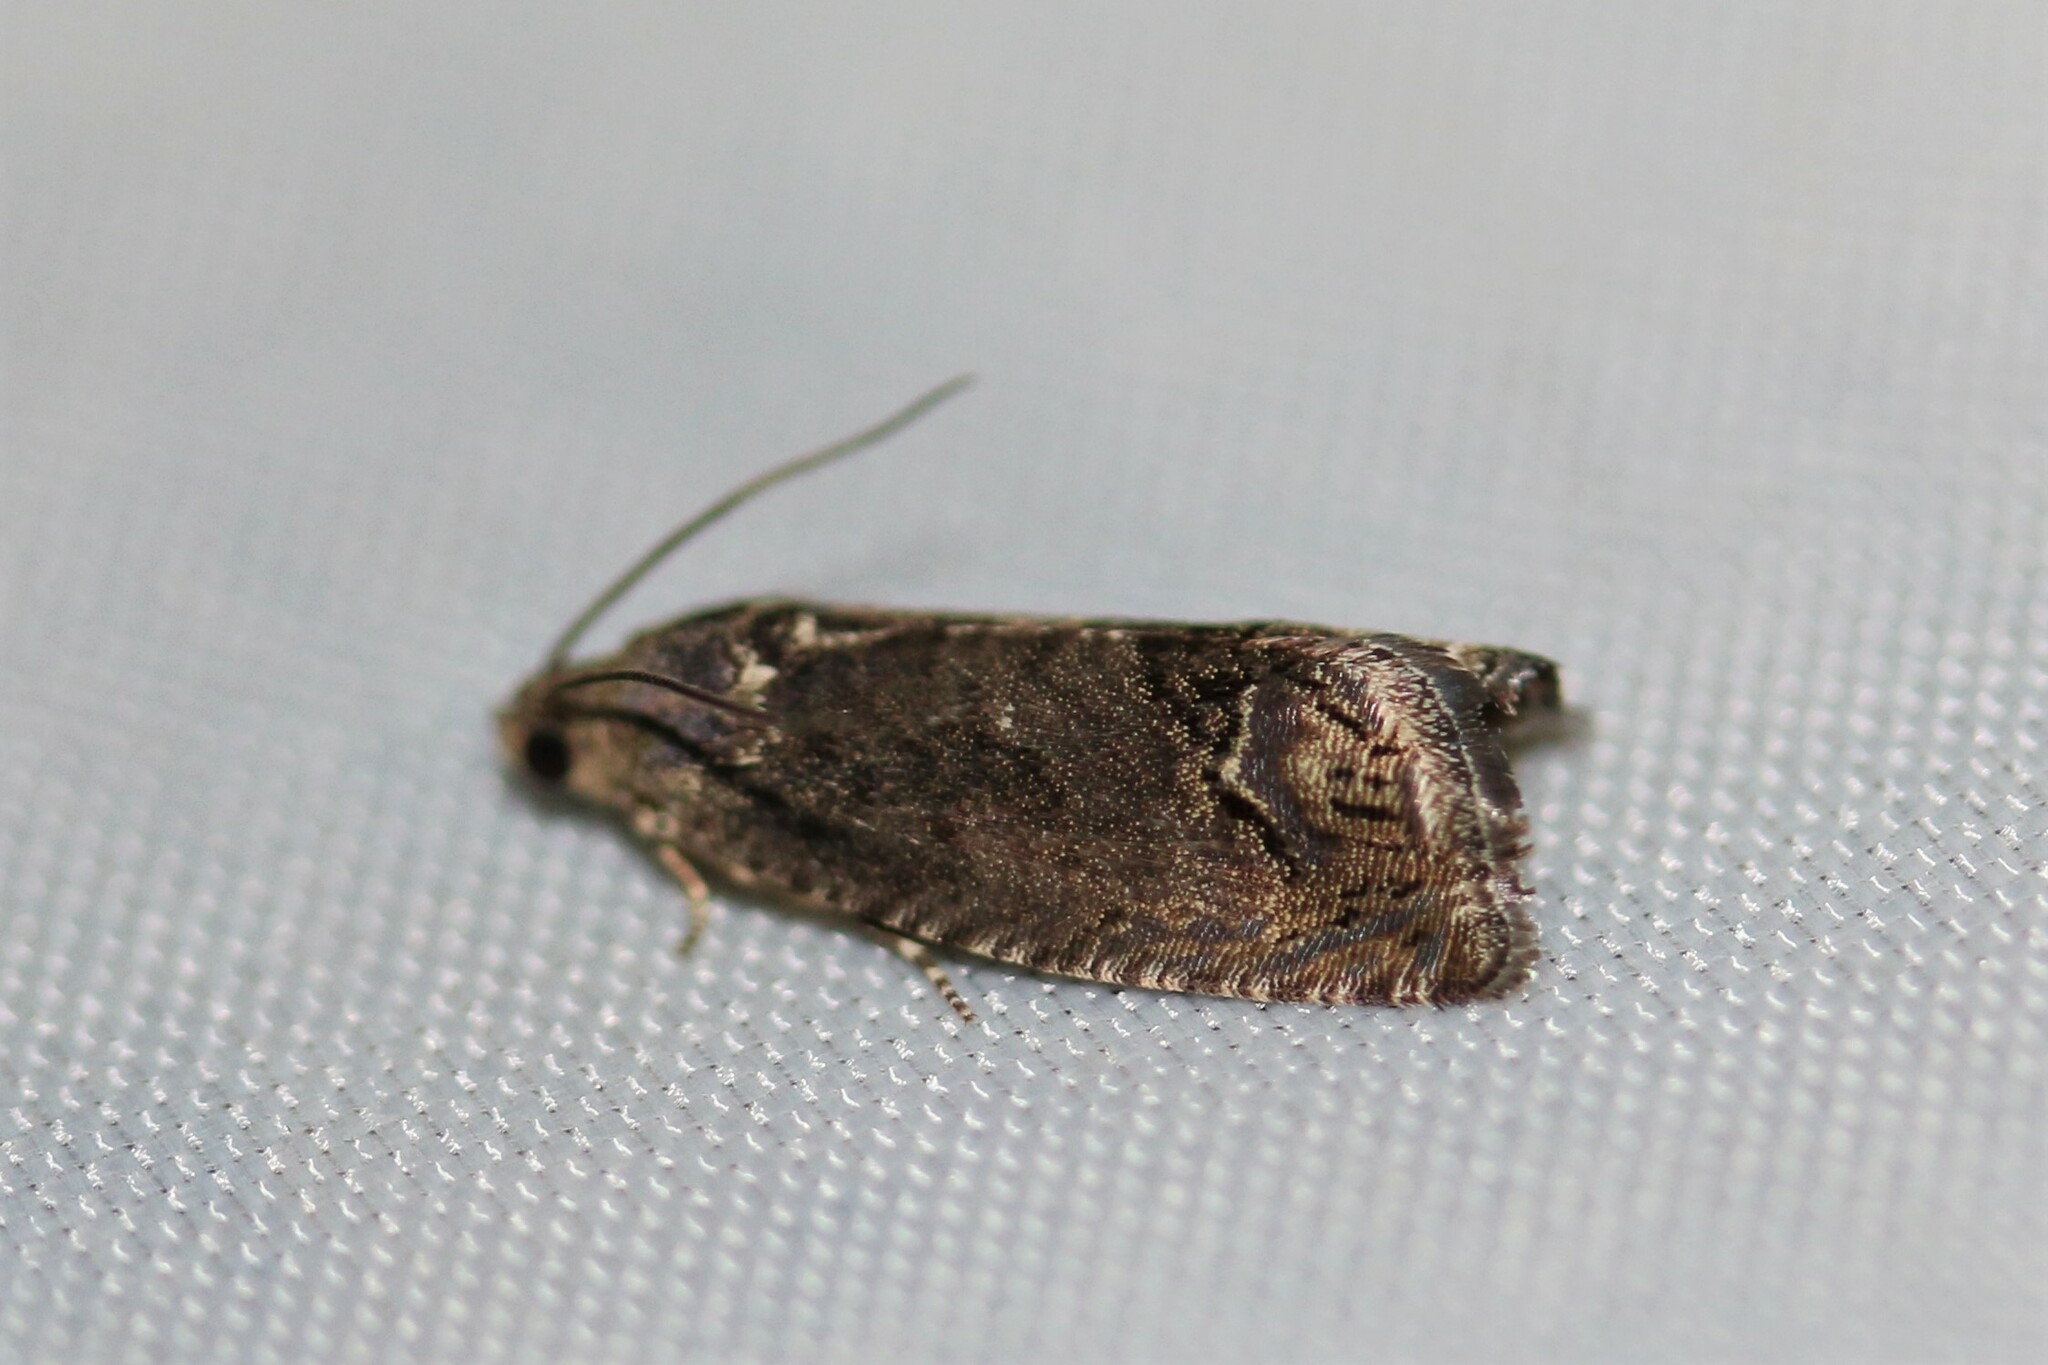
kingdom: Animalia
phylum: Arthropoda
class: Insecta
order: Lepidoptera
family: Tortricidae
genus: Cydia
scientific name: Cydia splendana
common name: De: kastanienwickler, eichenwickler es: oruga de la castaña fr: carpocapse des châtaignes it: cidia o tortrice tardiva delle castagne pt: bichado das castanhas gb: acorn moth, chestnut fruit tortrix
